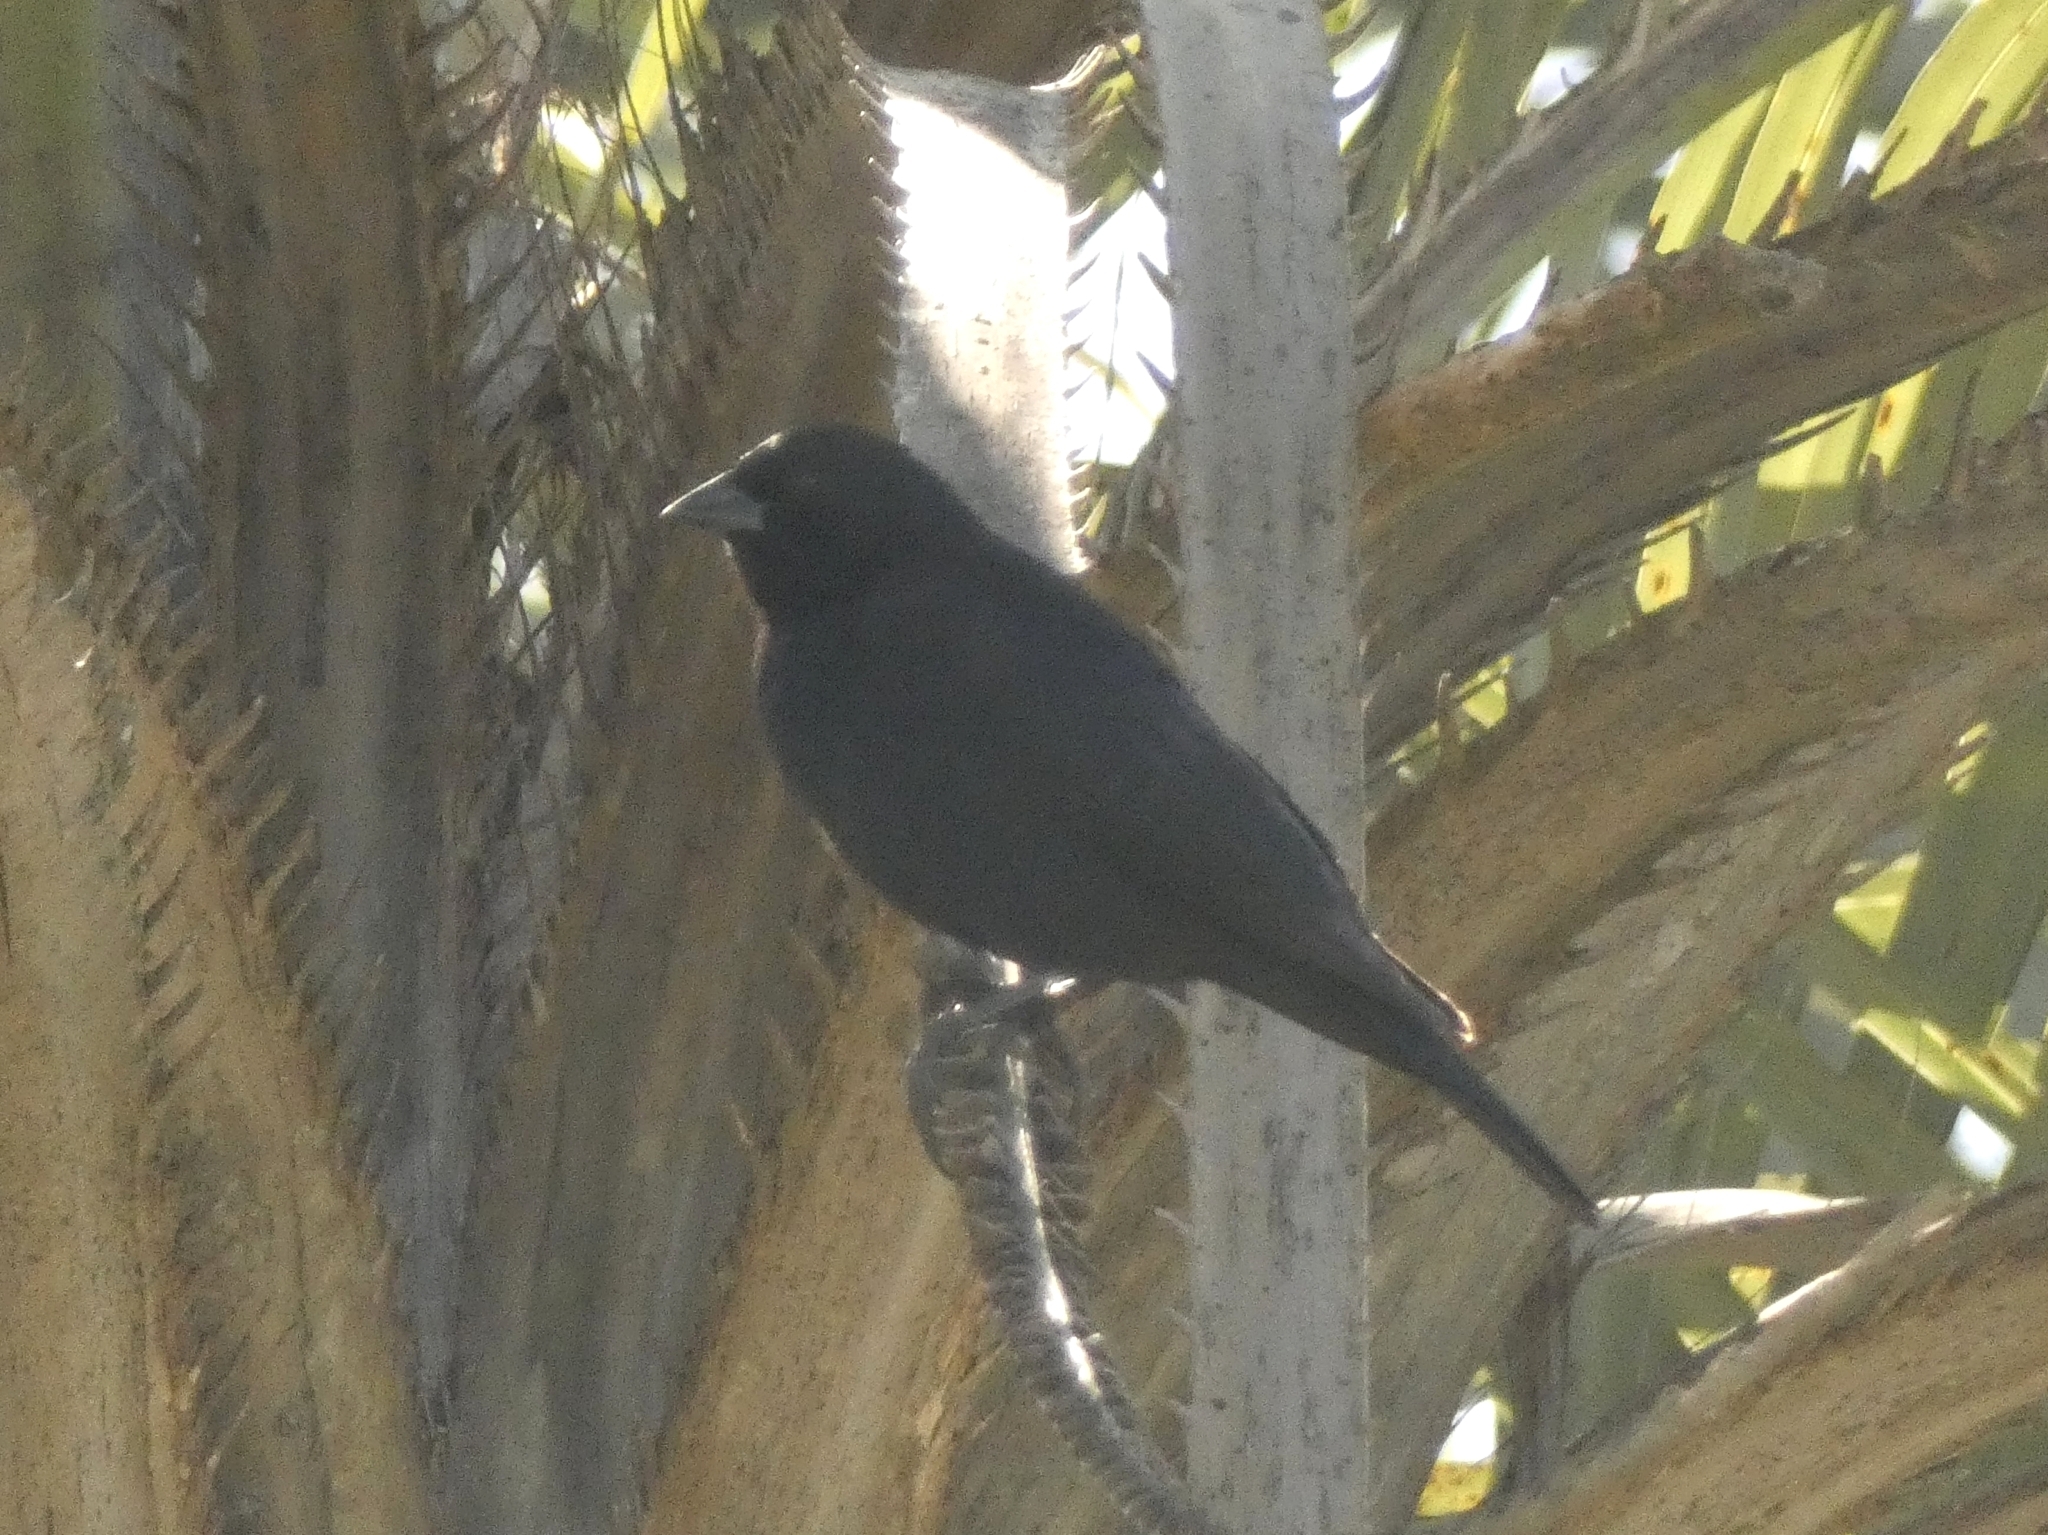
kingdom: Animalia
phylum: Chordata
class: Aves
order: Passeriformes
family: Icteridae
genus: Molothrus
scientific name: Molothrus rufoaxillaris
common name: Screaming cowbird
